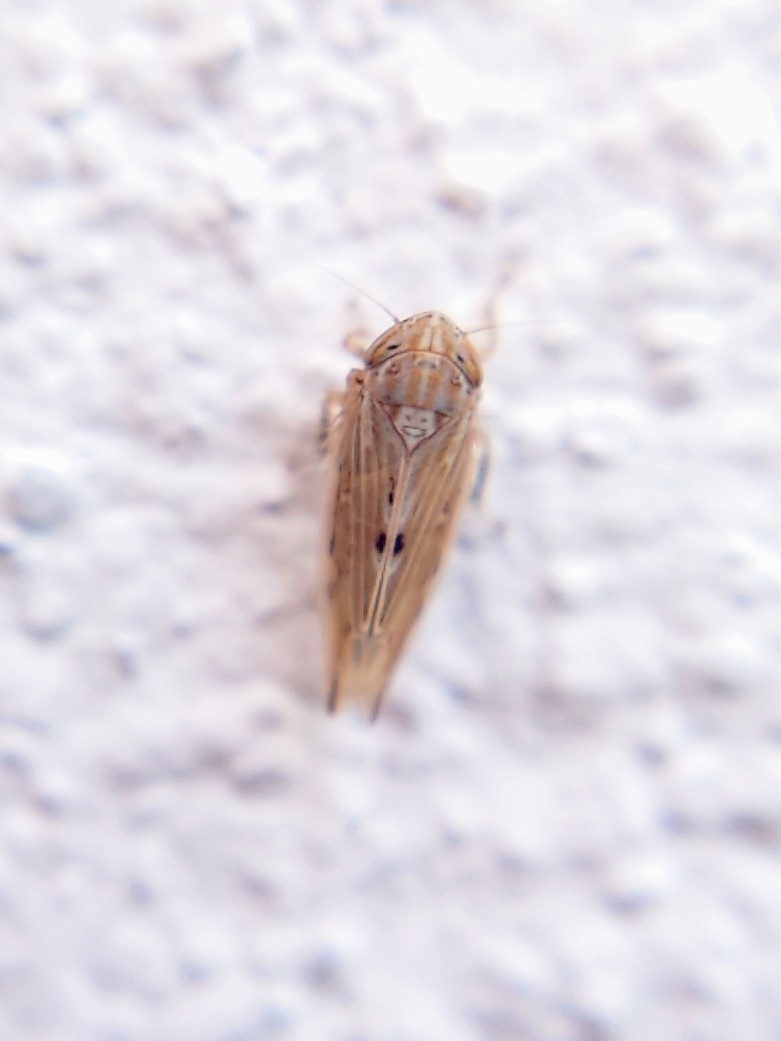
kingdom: Animalia
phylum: Arthropoda
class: Insecta
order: Hemiptera
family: Cicadellidae
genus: Mocydiopsis
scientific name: Mocydiopsis attenuata
